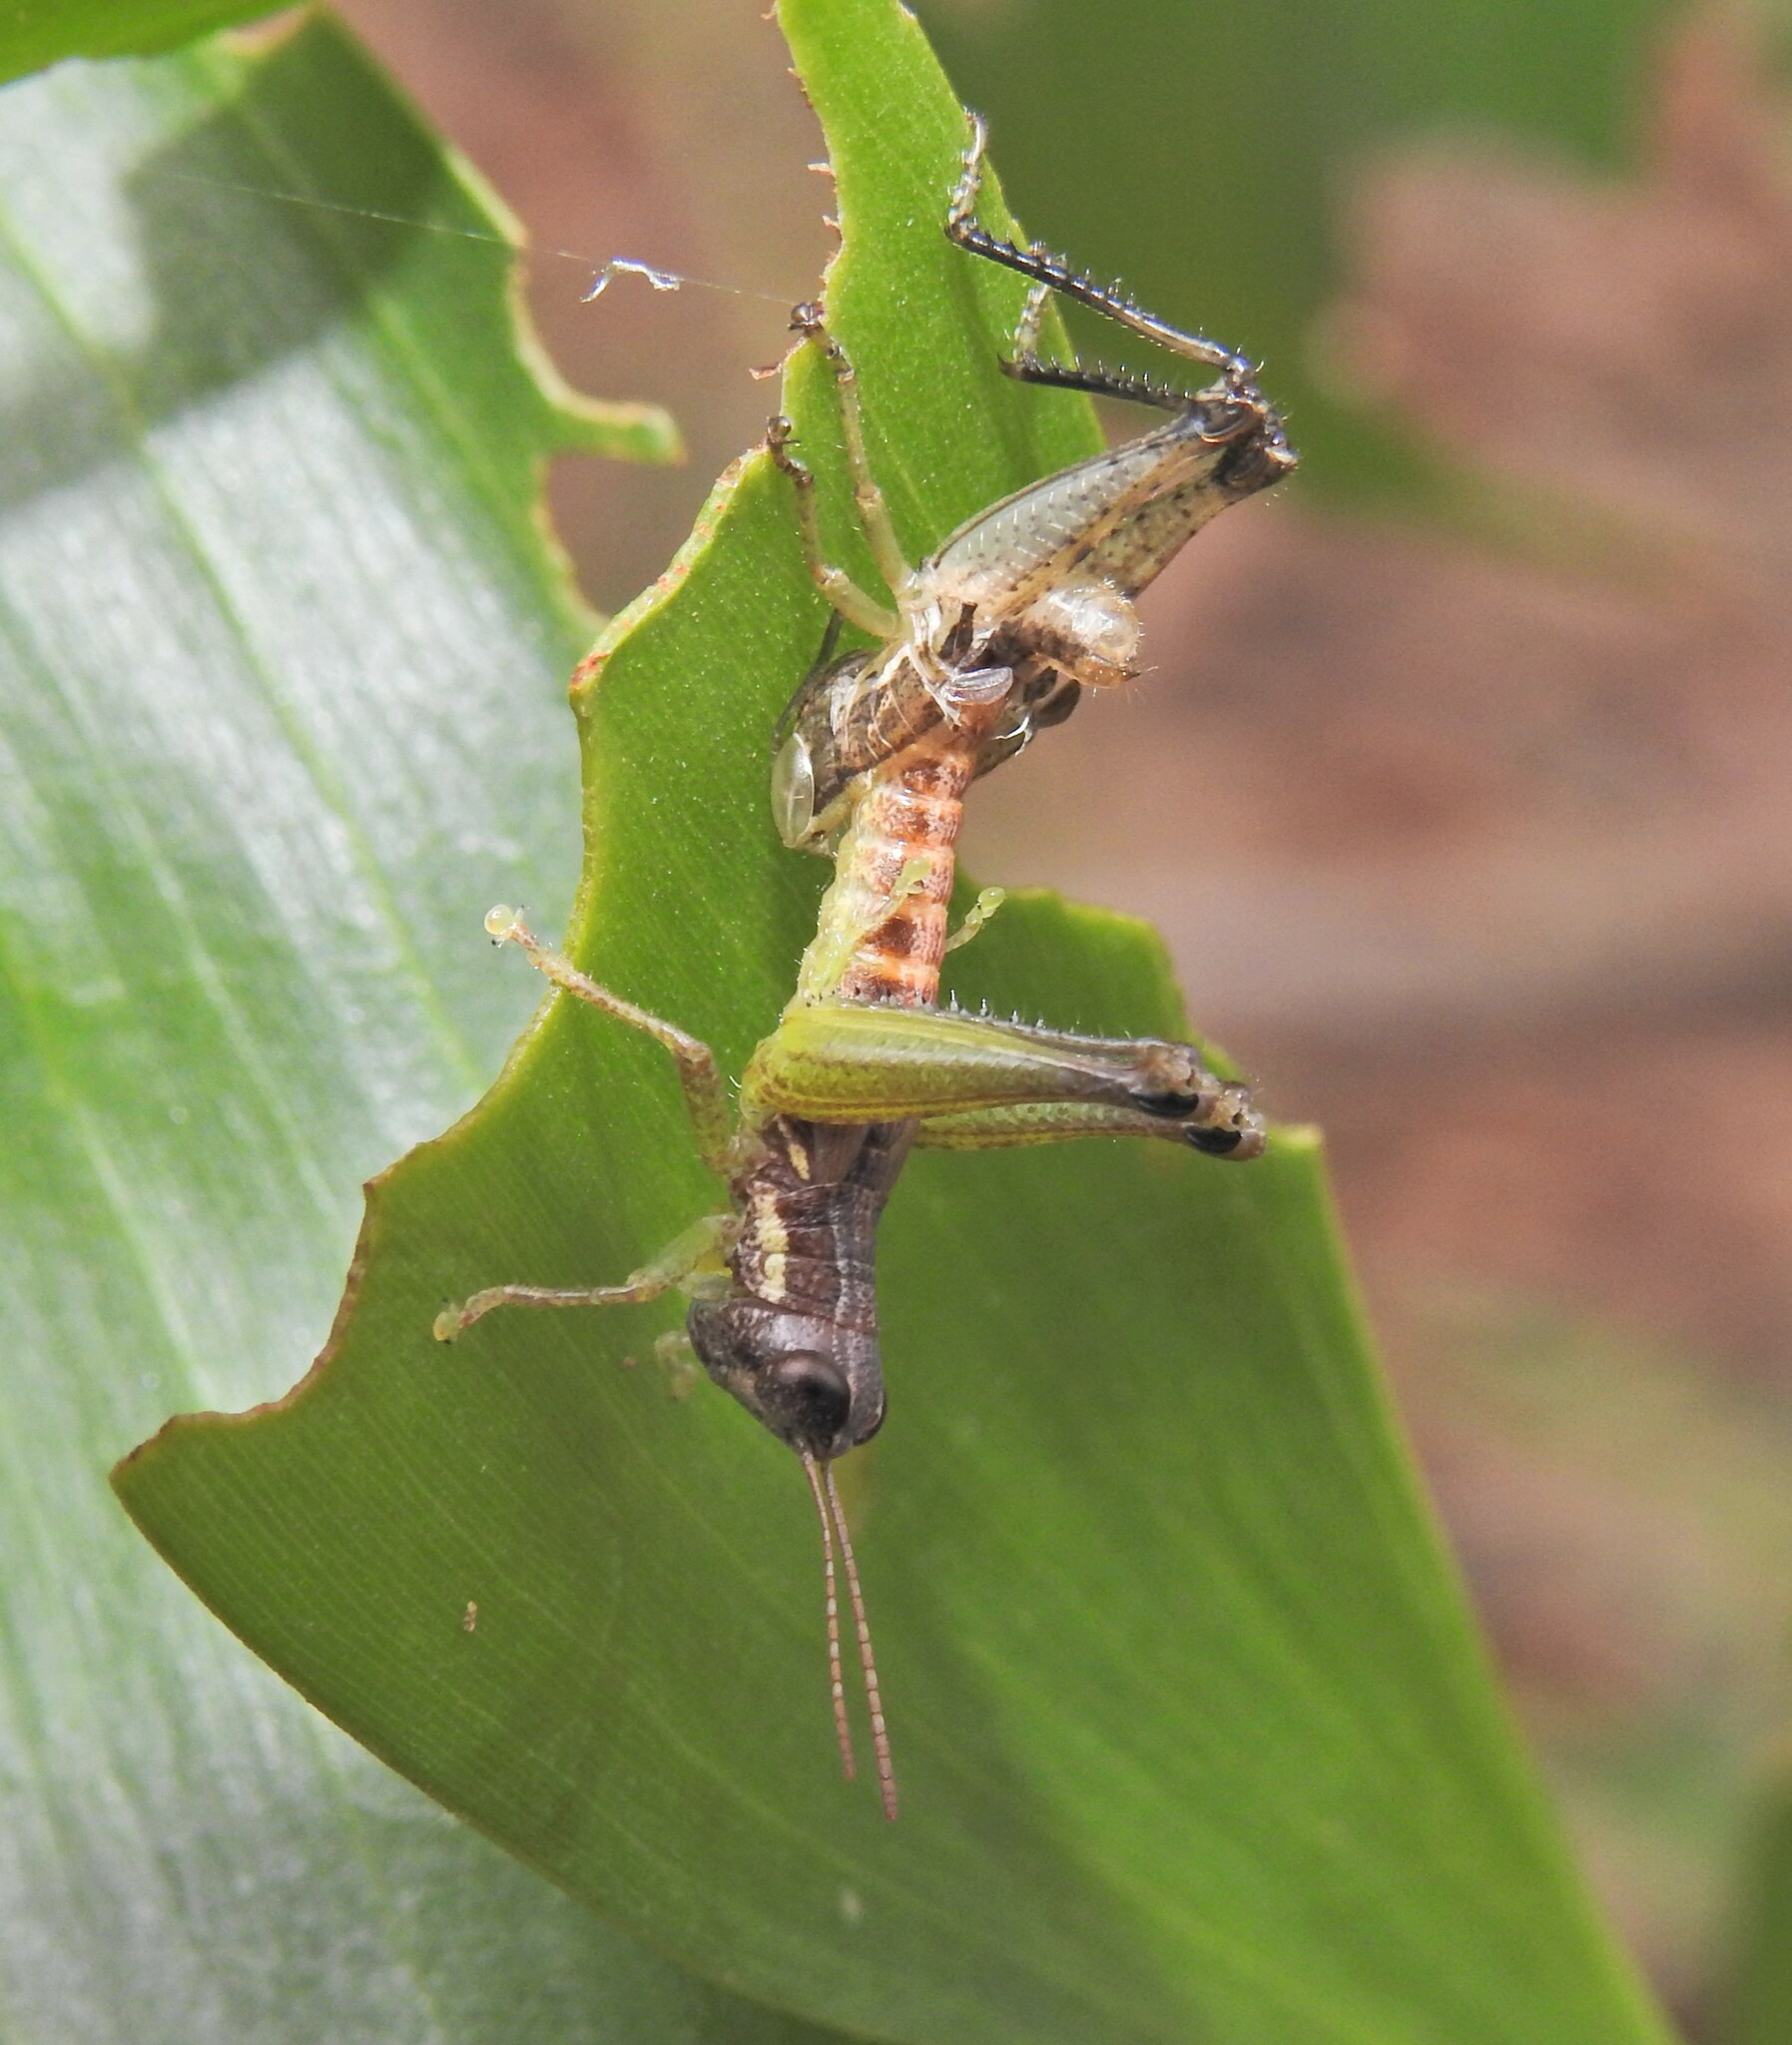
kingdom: Animalia
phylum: Arthropoda
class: Insecta
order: Orthoptera
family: Acrididae
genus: Methiolopsis
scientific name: Methiolopsis geniculata
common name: Little black-knees
